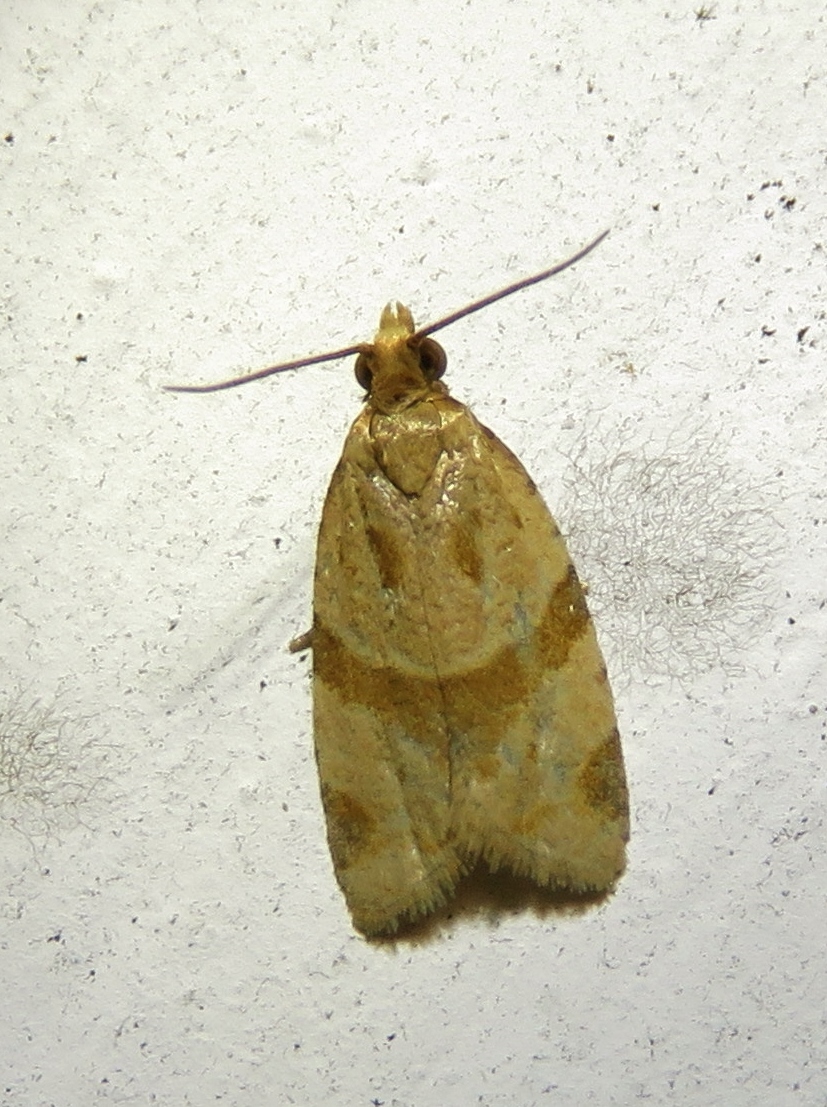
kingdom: Animalia
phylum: Arthropoda
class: Insecta
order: Lepidoptera
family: Tortricidae
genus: Clepsis
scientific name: Clepsis peritana
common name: Garden tortrix
